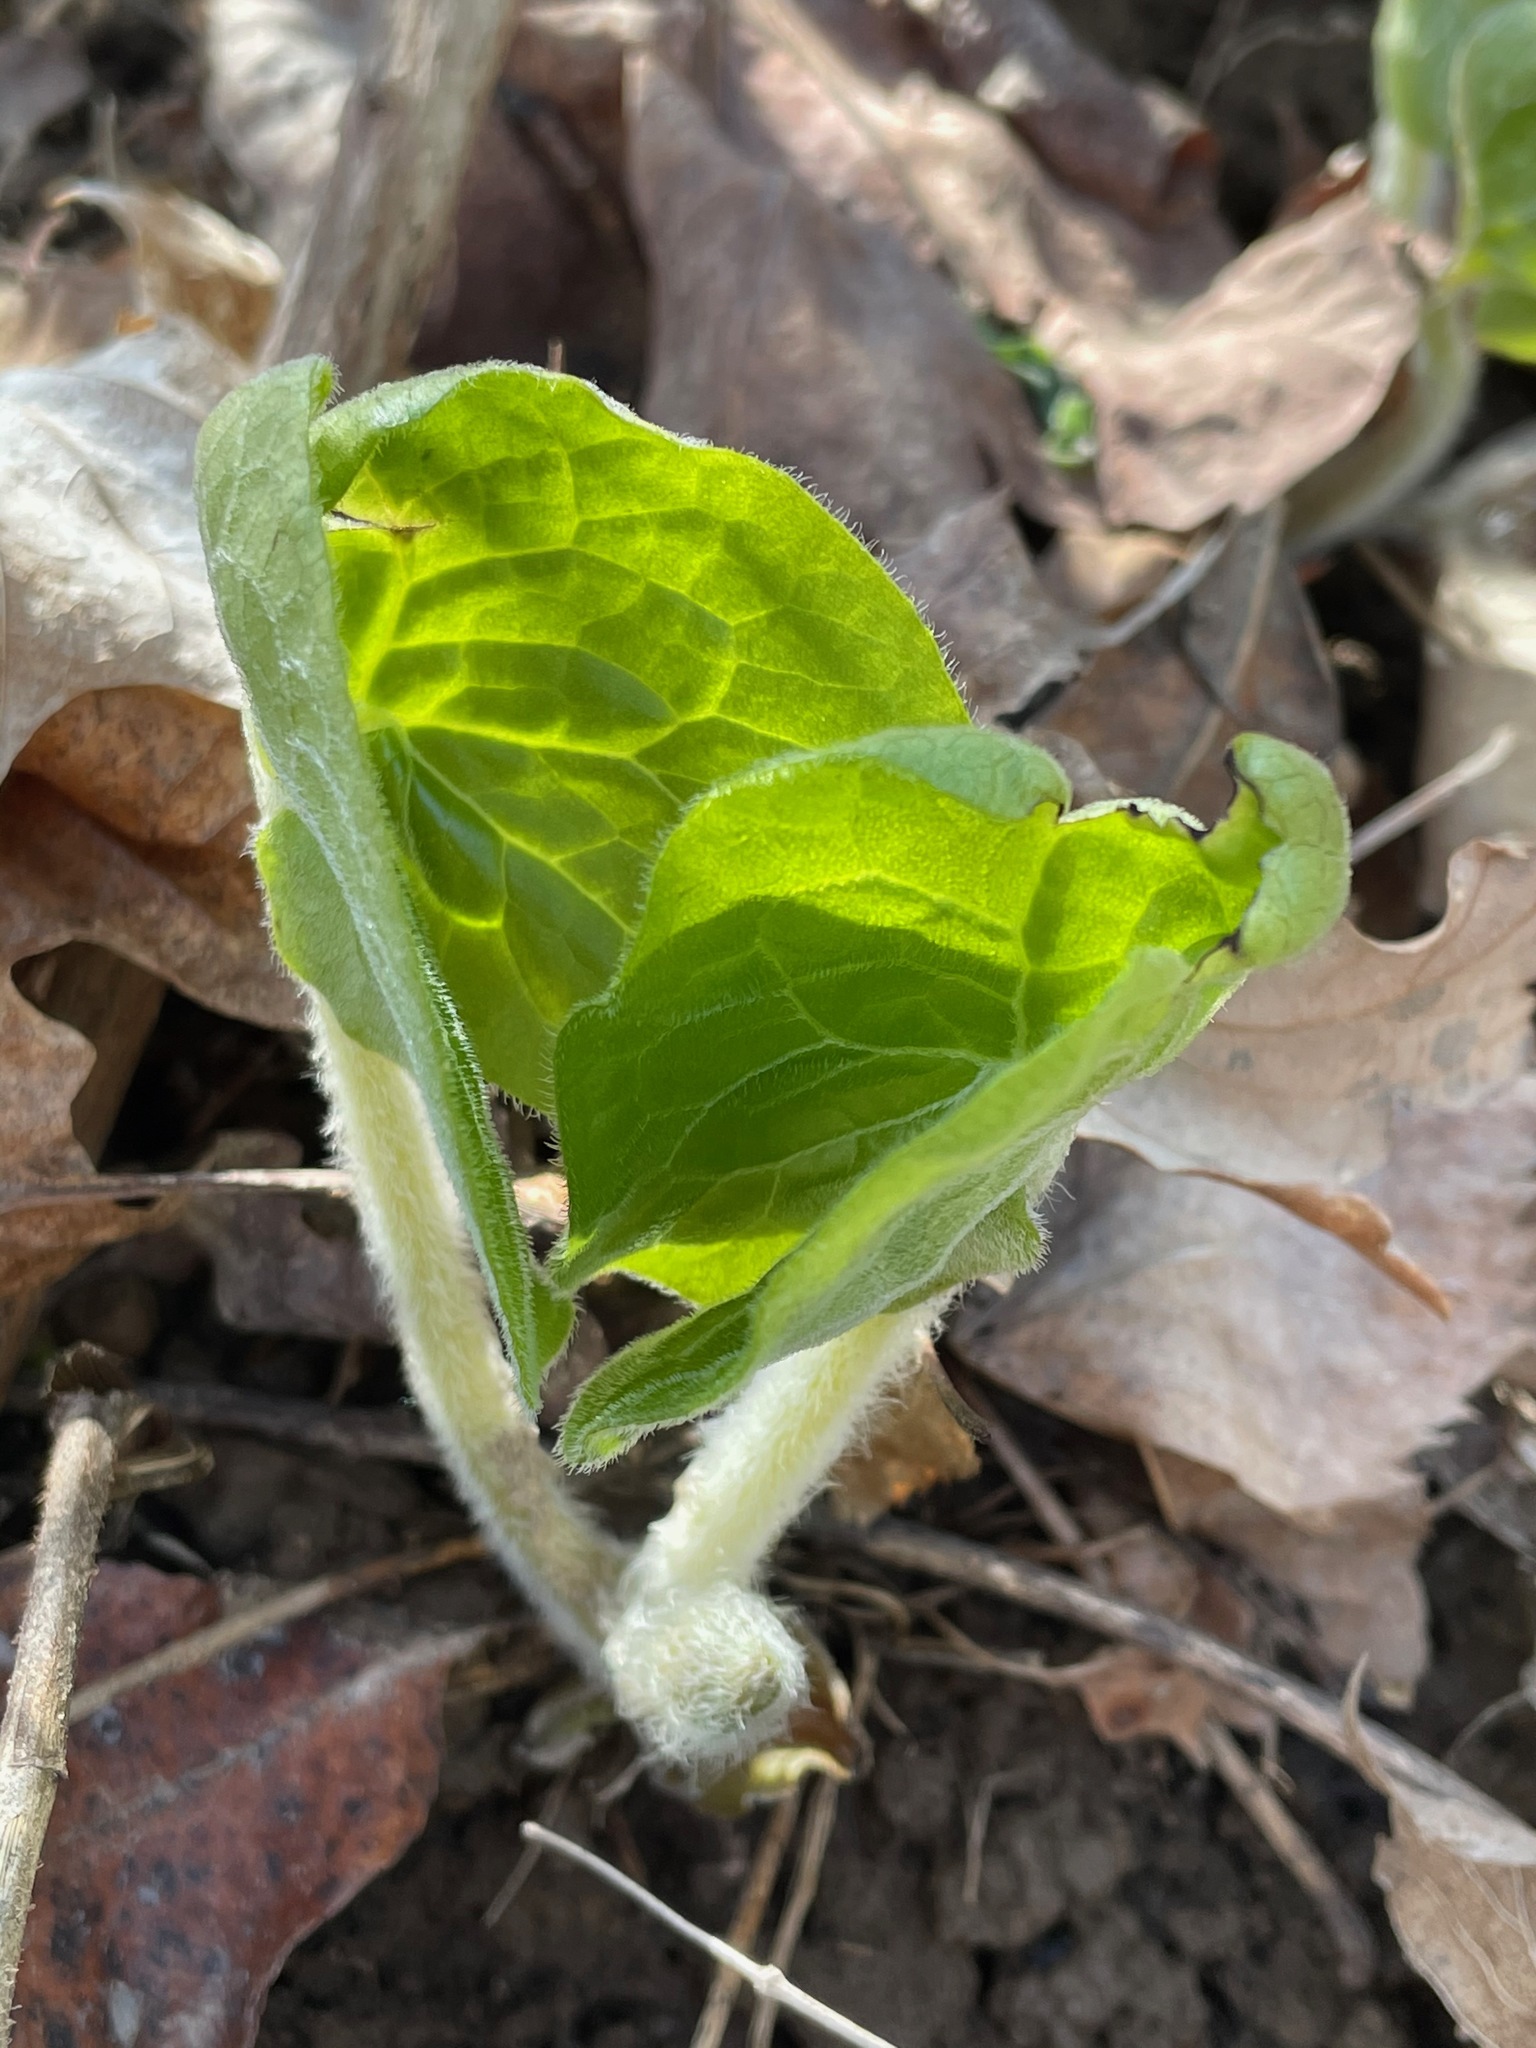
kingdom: Plantae
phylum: Tracheophyta
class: Magnoliopsida
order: Piperales
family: Aristolochiaceae
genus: Asarum
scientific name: Asarum canadense
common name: Wild ginger
